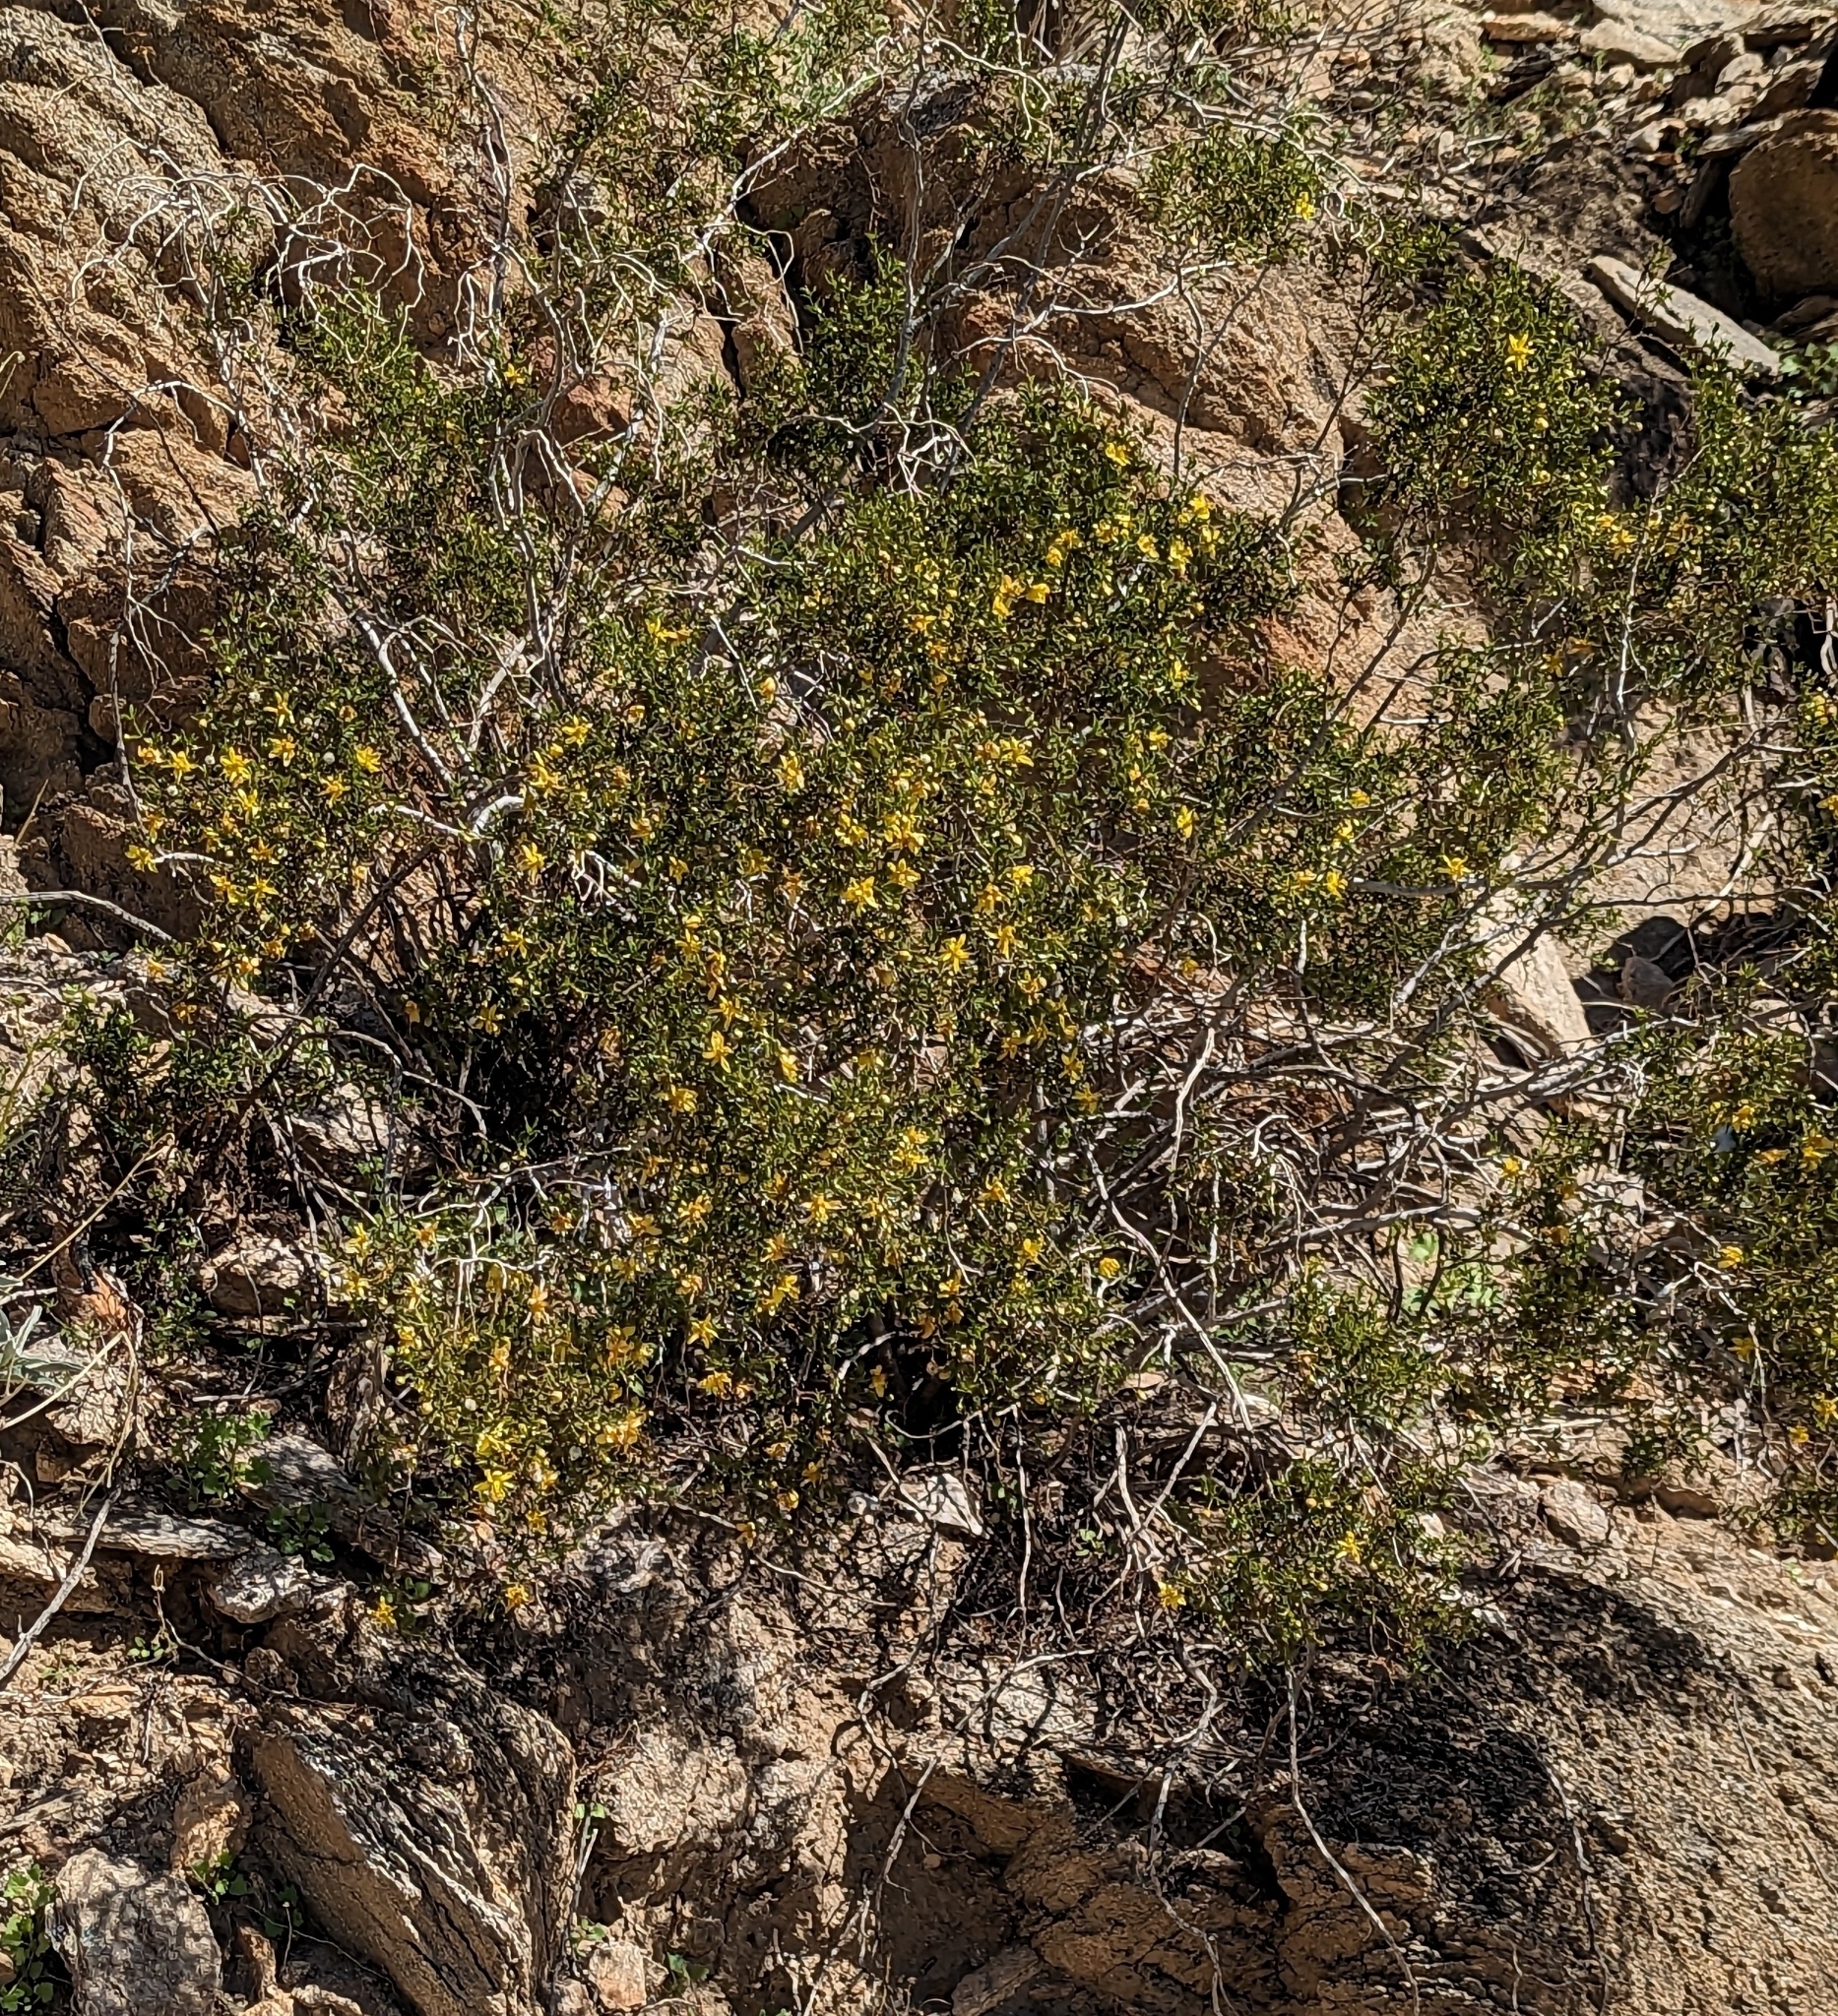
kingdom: Plantae
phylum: Tracheophyta
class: Magnoliopsida
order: Zygophyllales
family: Zygophyllaceae
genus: Larrea
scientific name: Larrea tridentata
